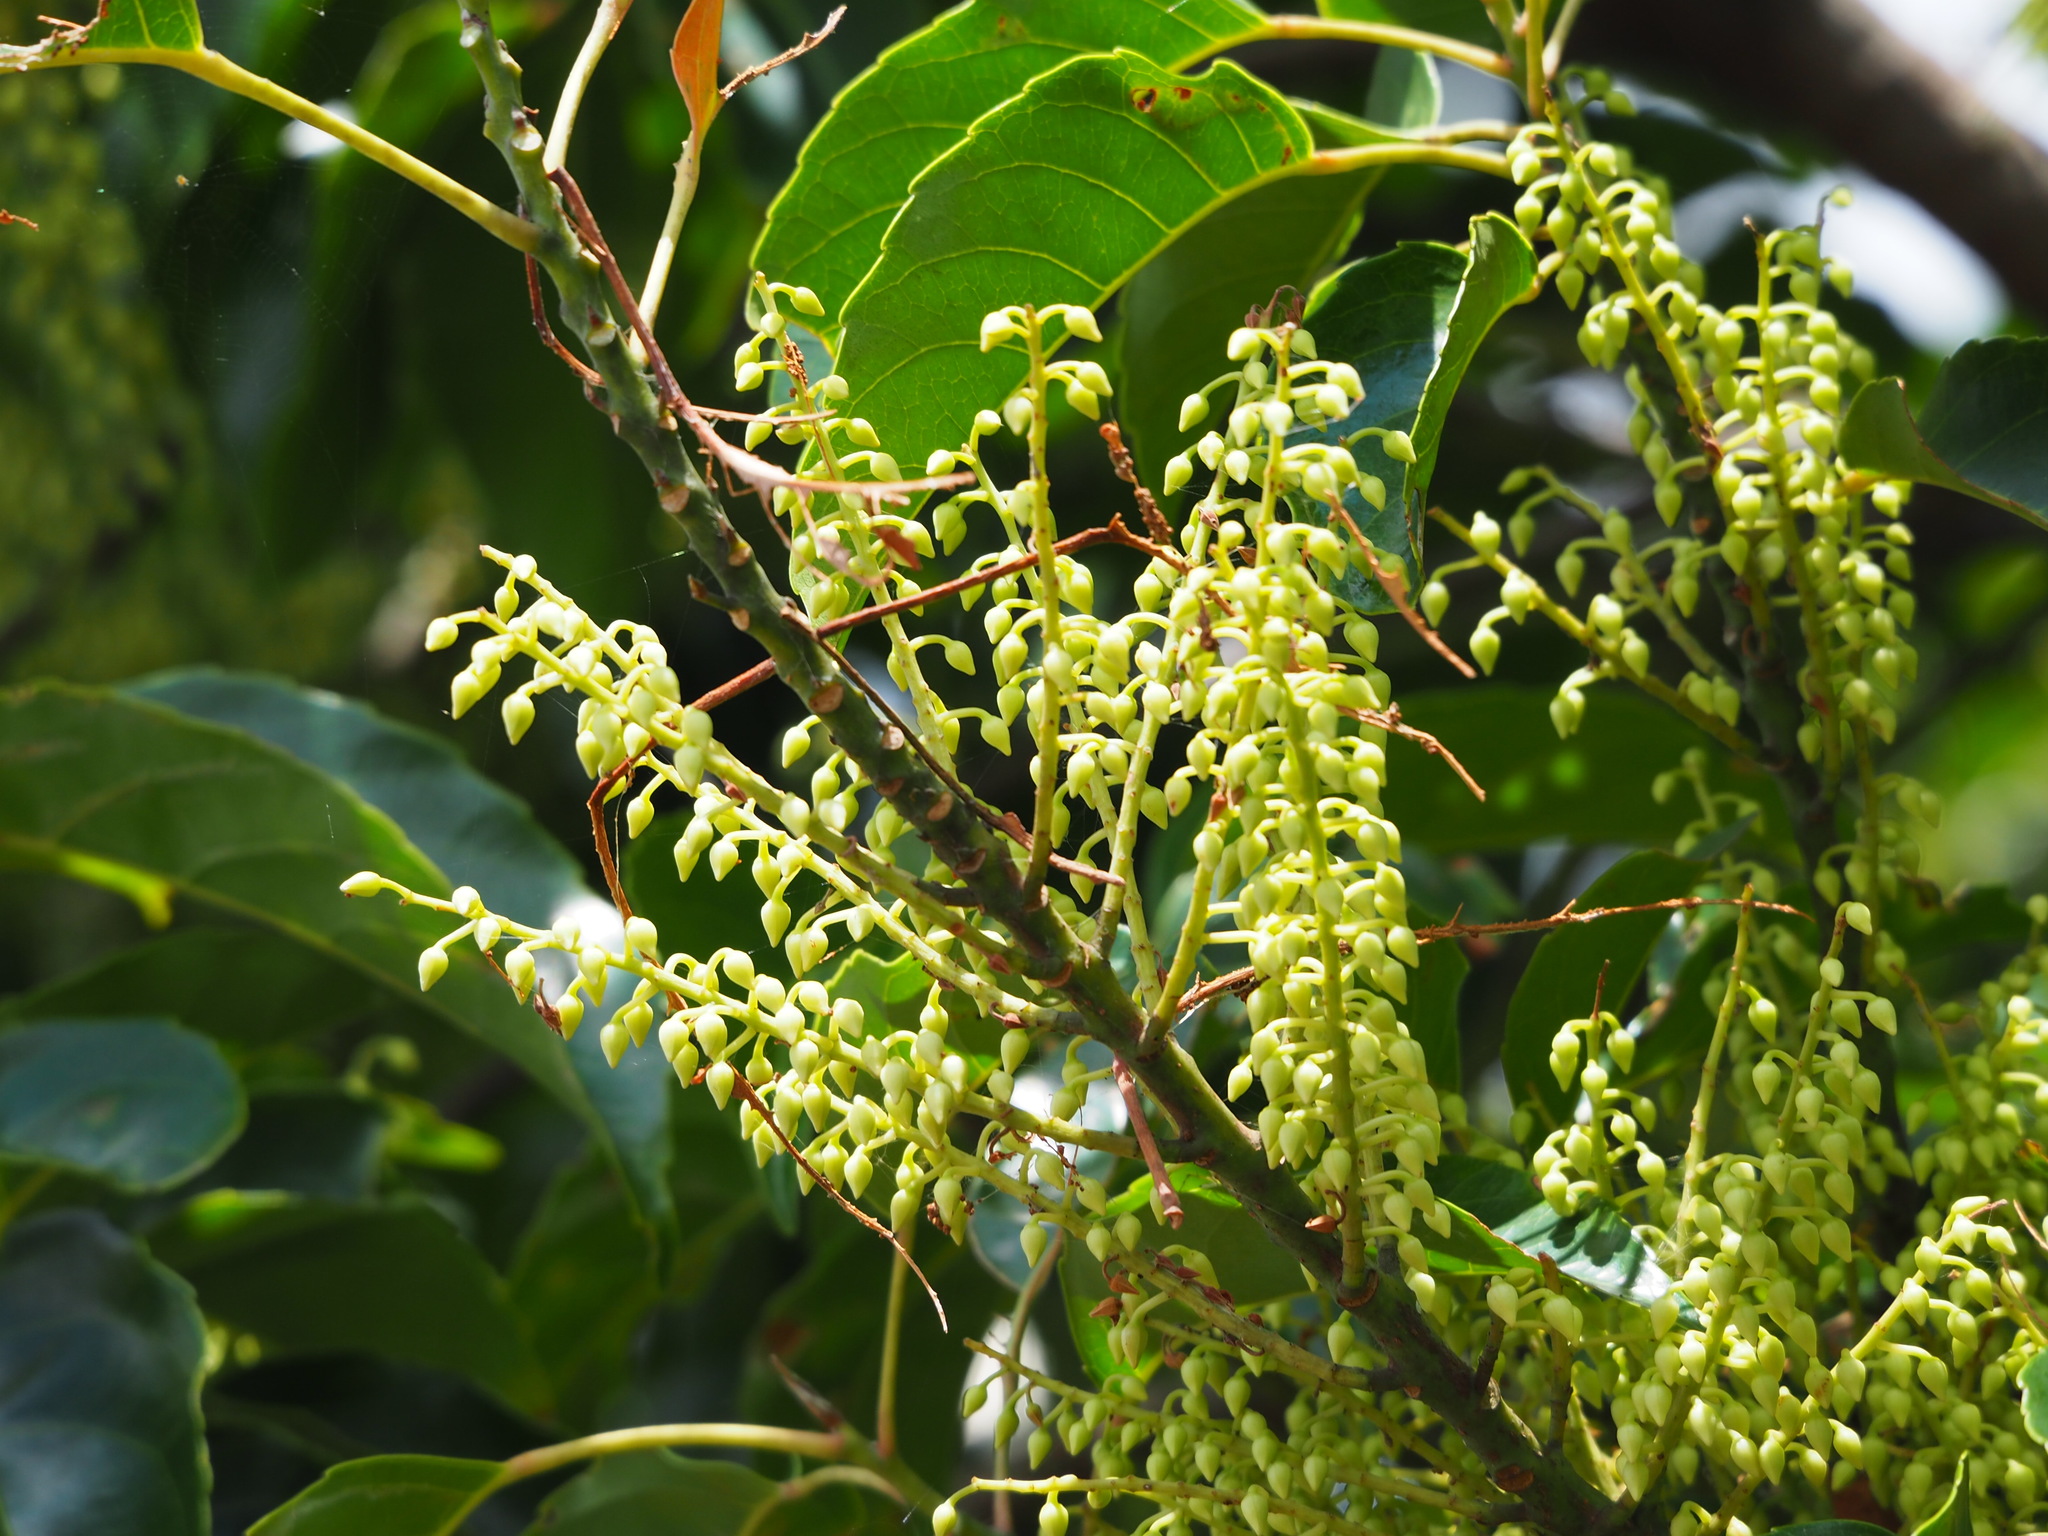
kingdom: Plantae
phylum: Tracheophyta
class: Magnoliopsida
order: Oxalidales
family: Elaeocarpaceae
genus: Elaeocarpus
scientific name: Elaeocarpus serratus
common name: Ceylon-olive
